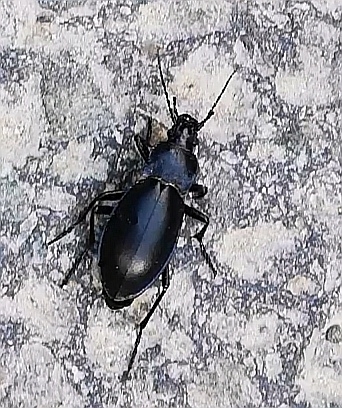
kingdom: Animalia
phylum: Arthropoda
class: Insecta
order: Coleoptera
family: Carabidae
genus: Carabus
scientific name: Carabus violaceus
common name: Violet ground beetle
